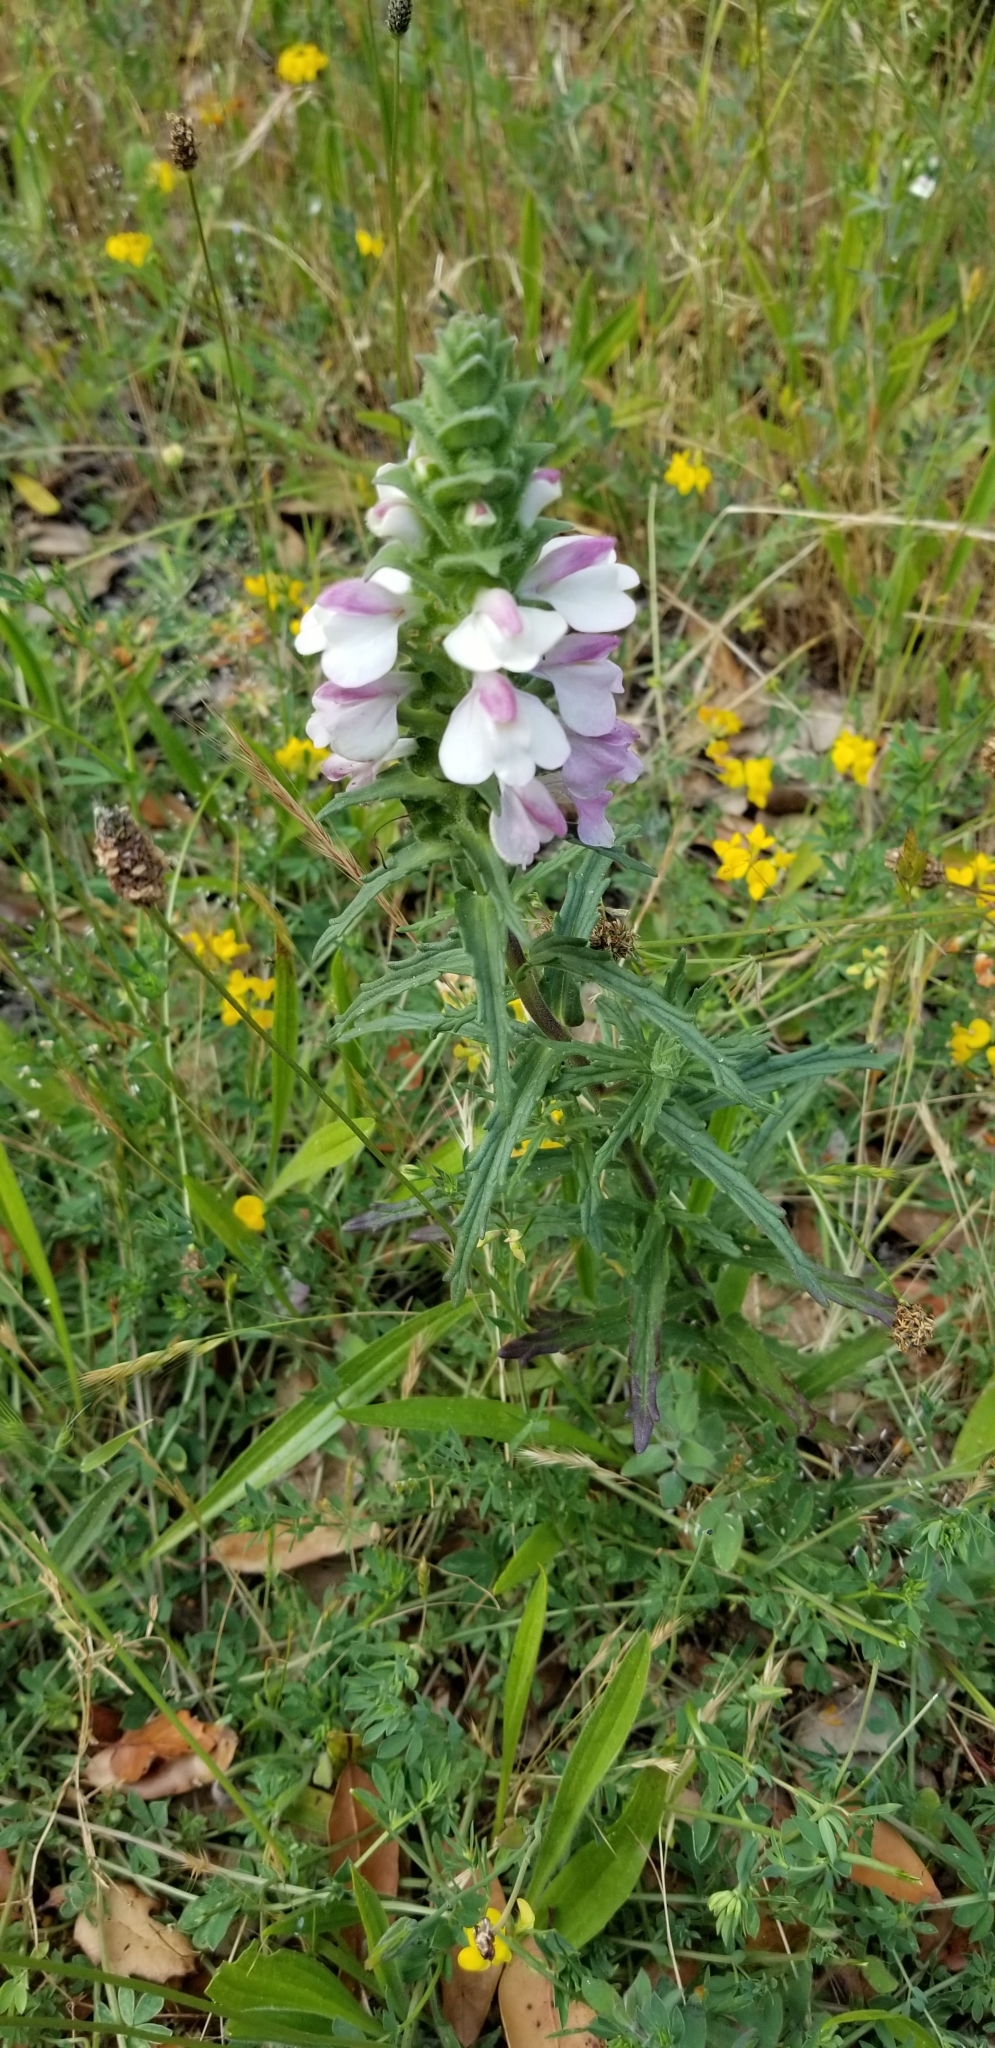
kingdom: Plantae
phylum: Tracheophyta
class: Magnoliopsida
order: Lamiales
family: Orobanchaceae
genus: Bellardia
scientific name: Bellardia trixago
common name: Mediterranean lineseed
